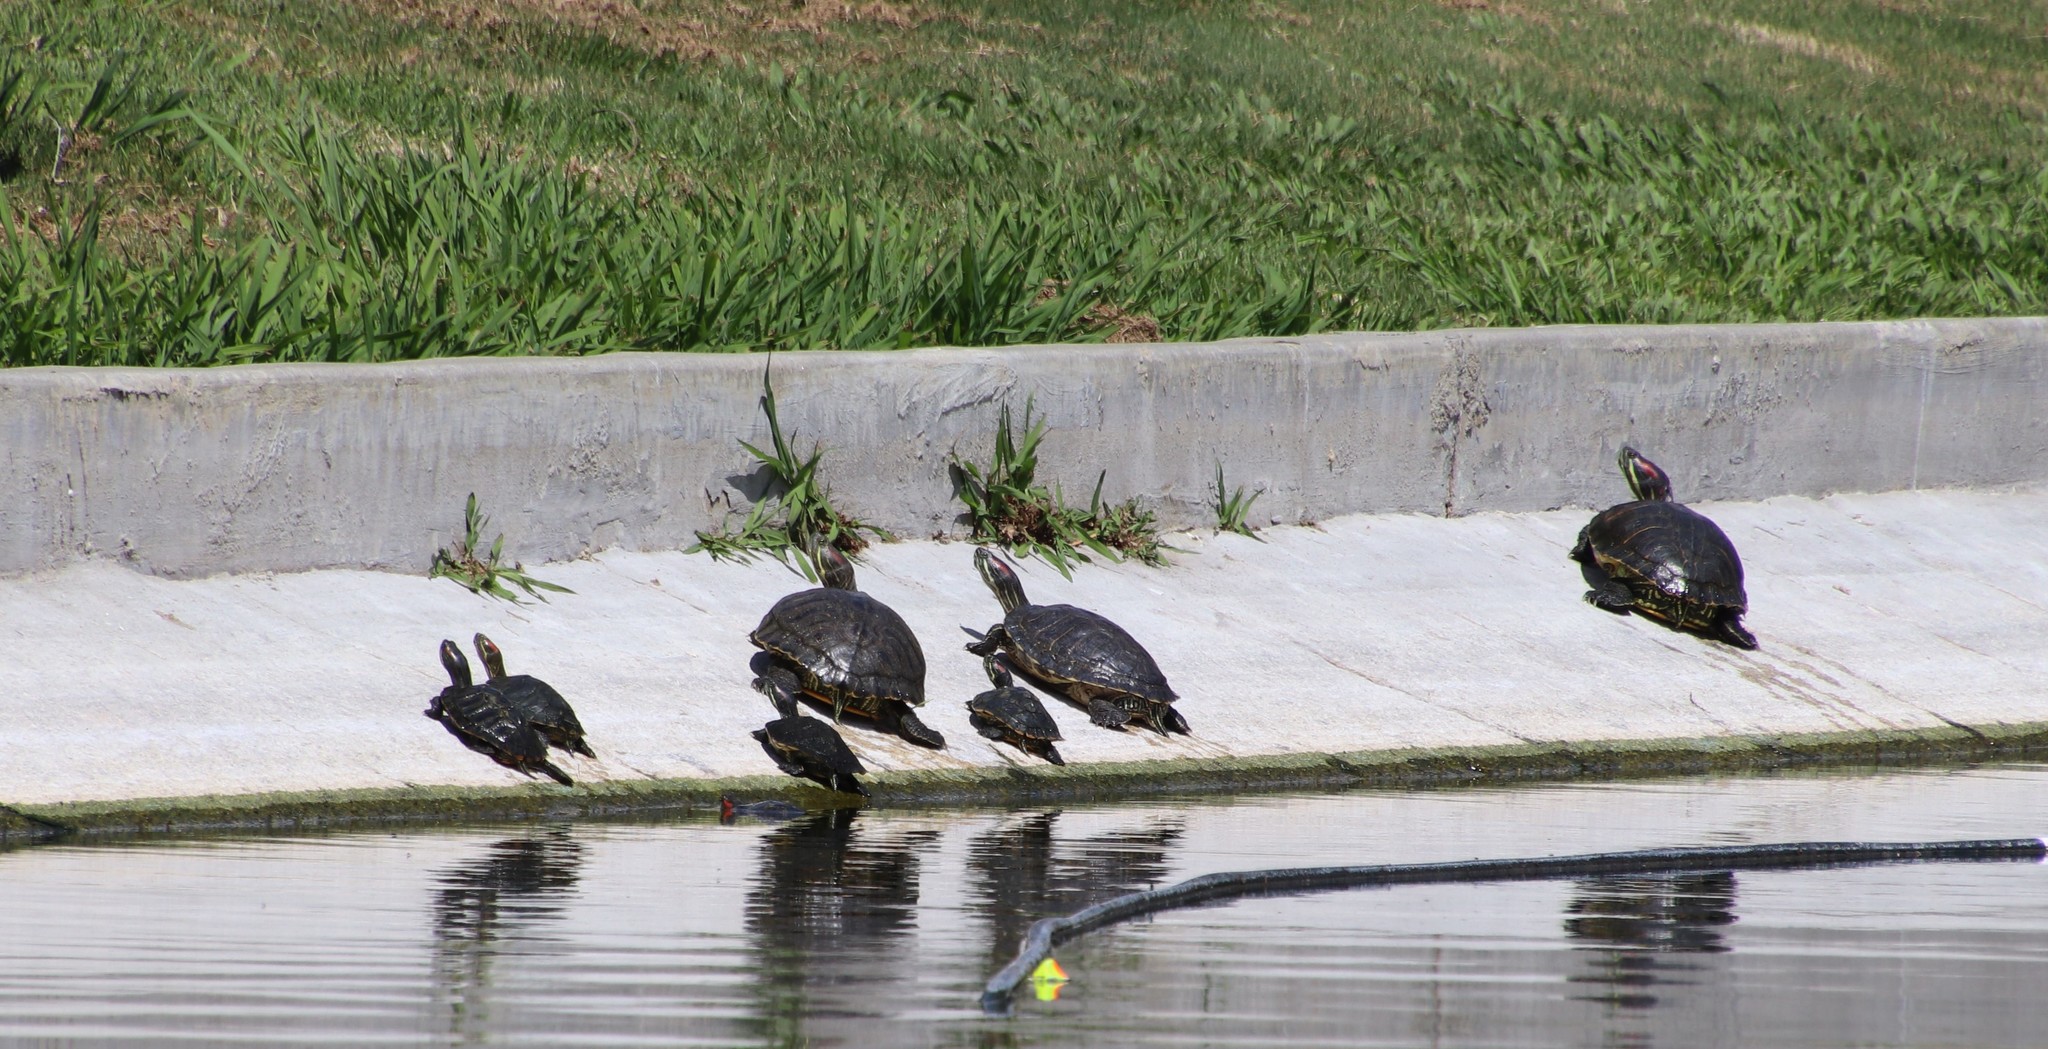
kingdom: Animalia
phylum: Chordata
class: Testudines
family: Emydidae
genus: Trachemys
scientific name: Trachemys scripta
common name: Slider
